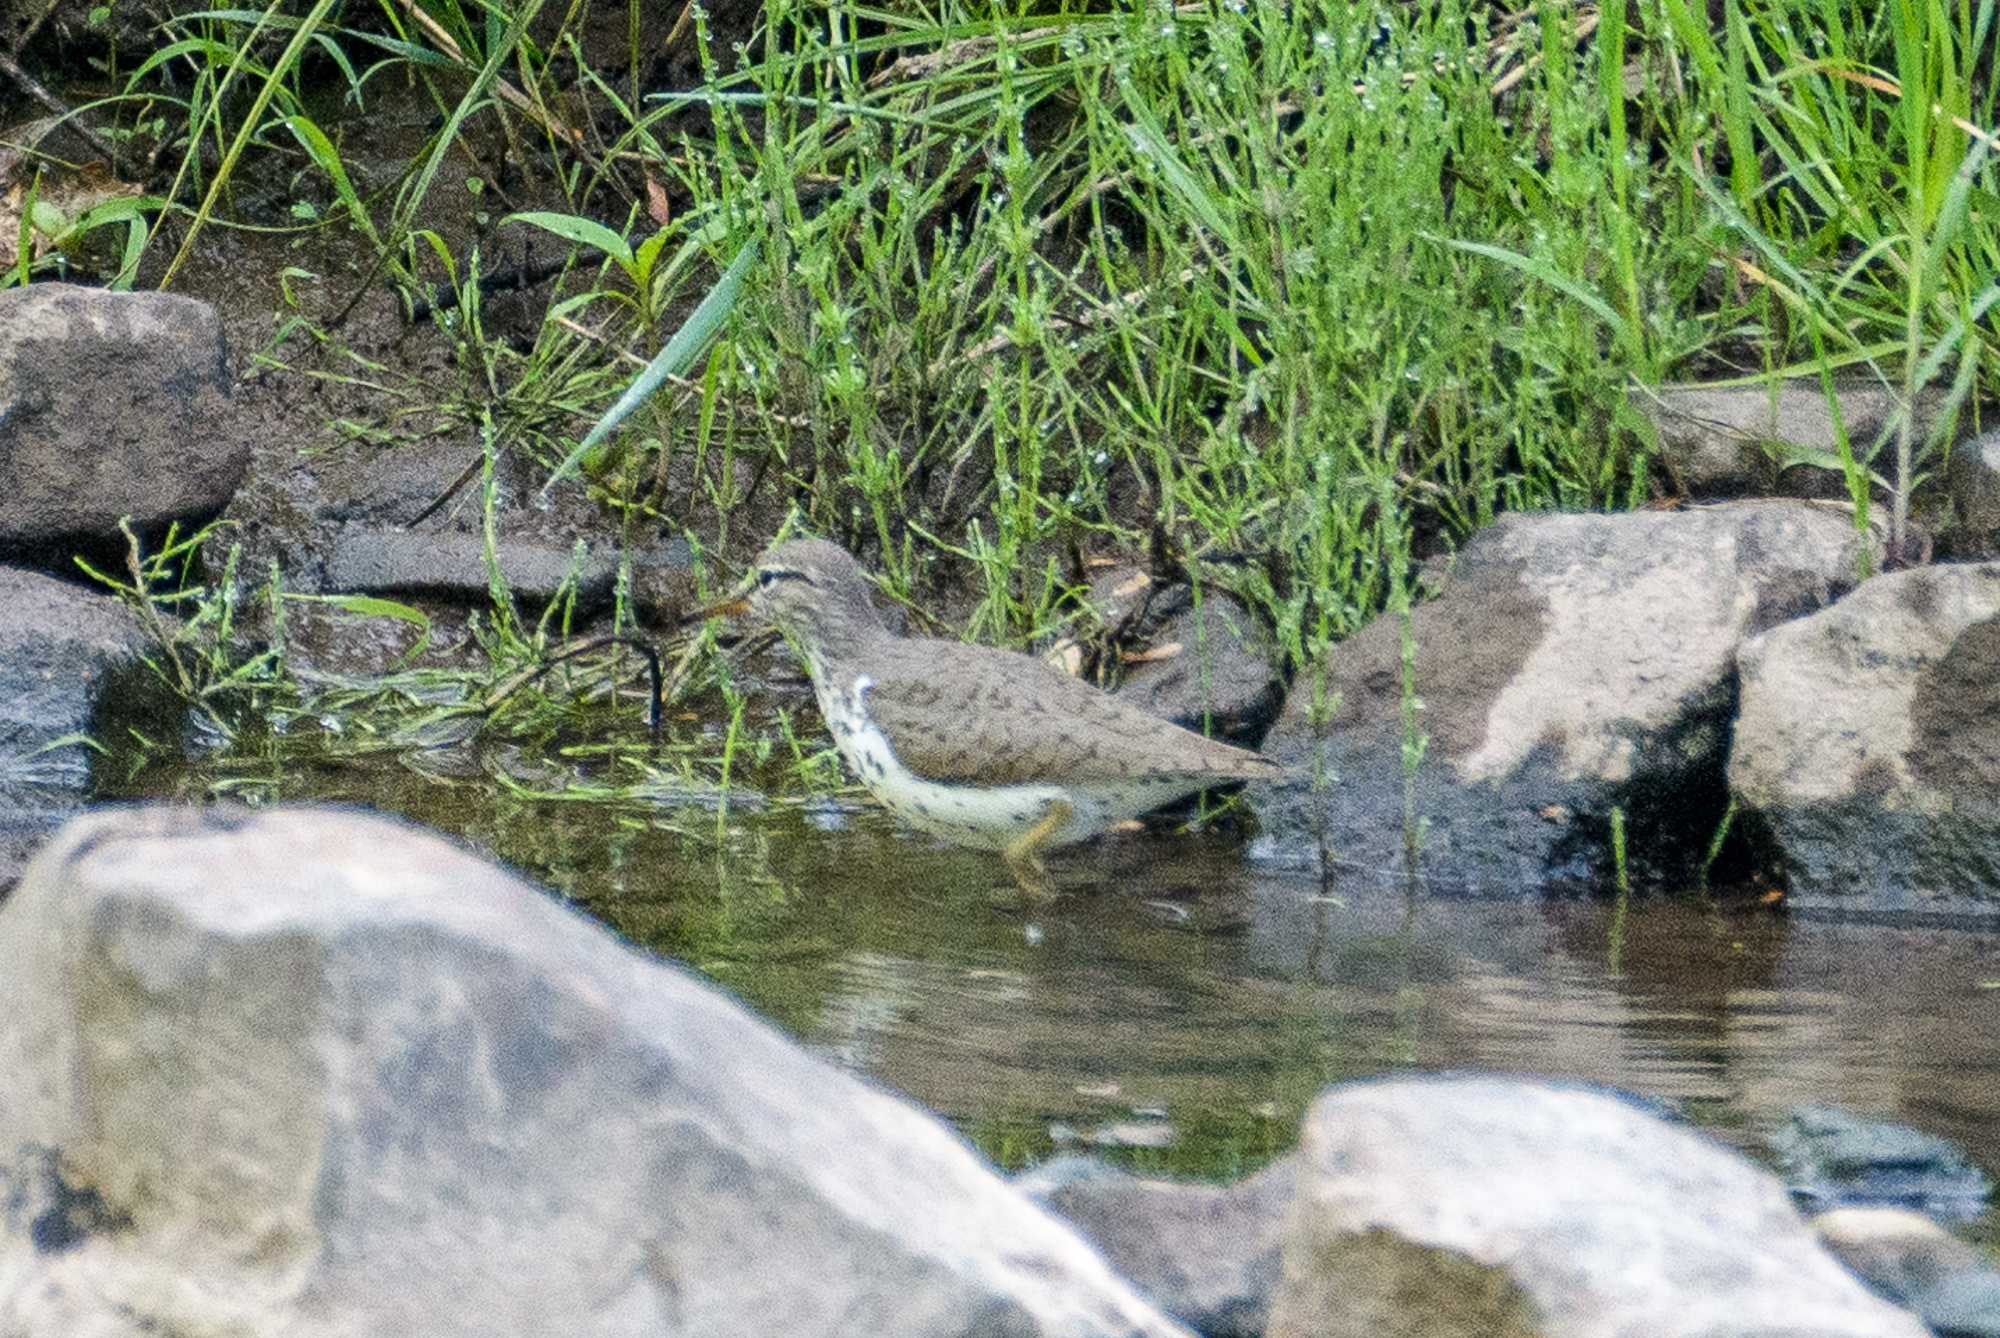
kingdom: Animalia
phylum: Chordata
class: Aves
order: Charadriiformes
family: Scolopacidae
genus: Actitis
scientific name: Actitis macularius
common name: Spotted sandpiper
